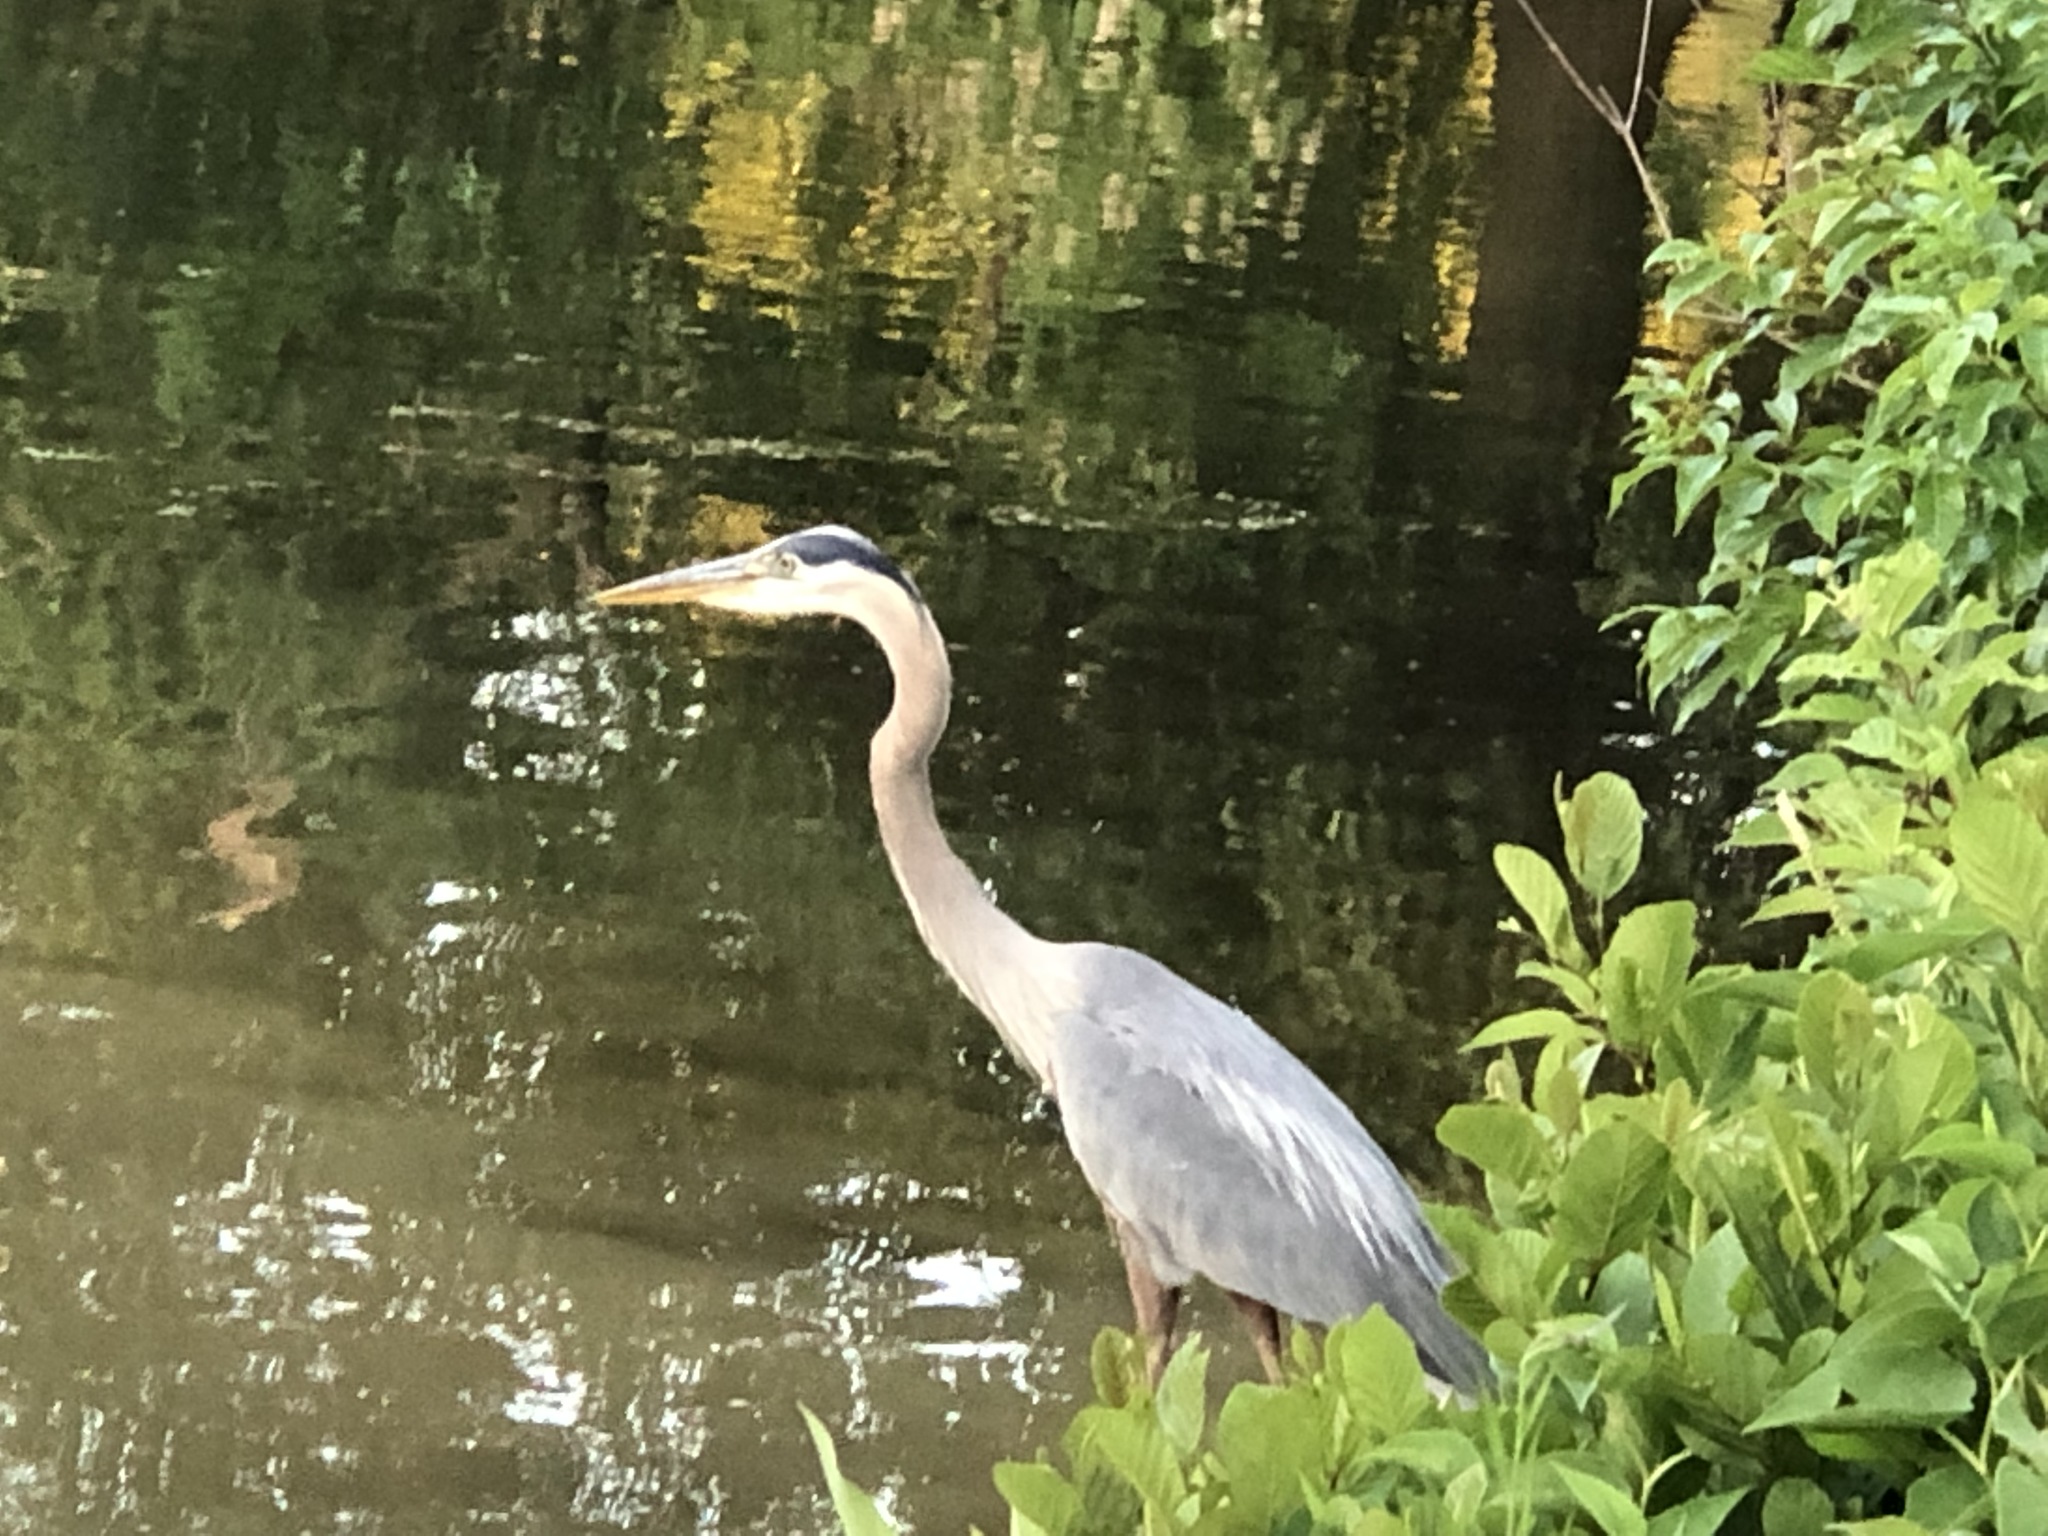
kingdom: Animalia
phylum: Chordata
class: Aves
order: Pelecaniformes
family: Ardeidae
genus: Ardea
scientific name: Ardea herodias
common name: Great blue heron
